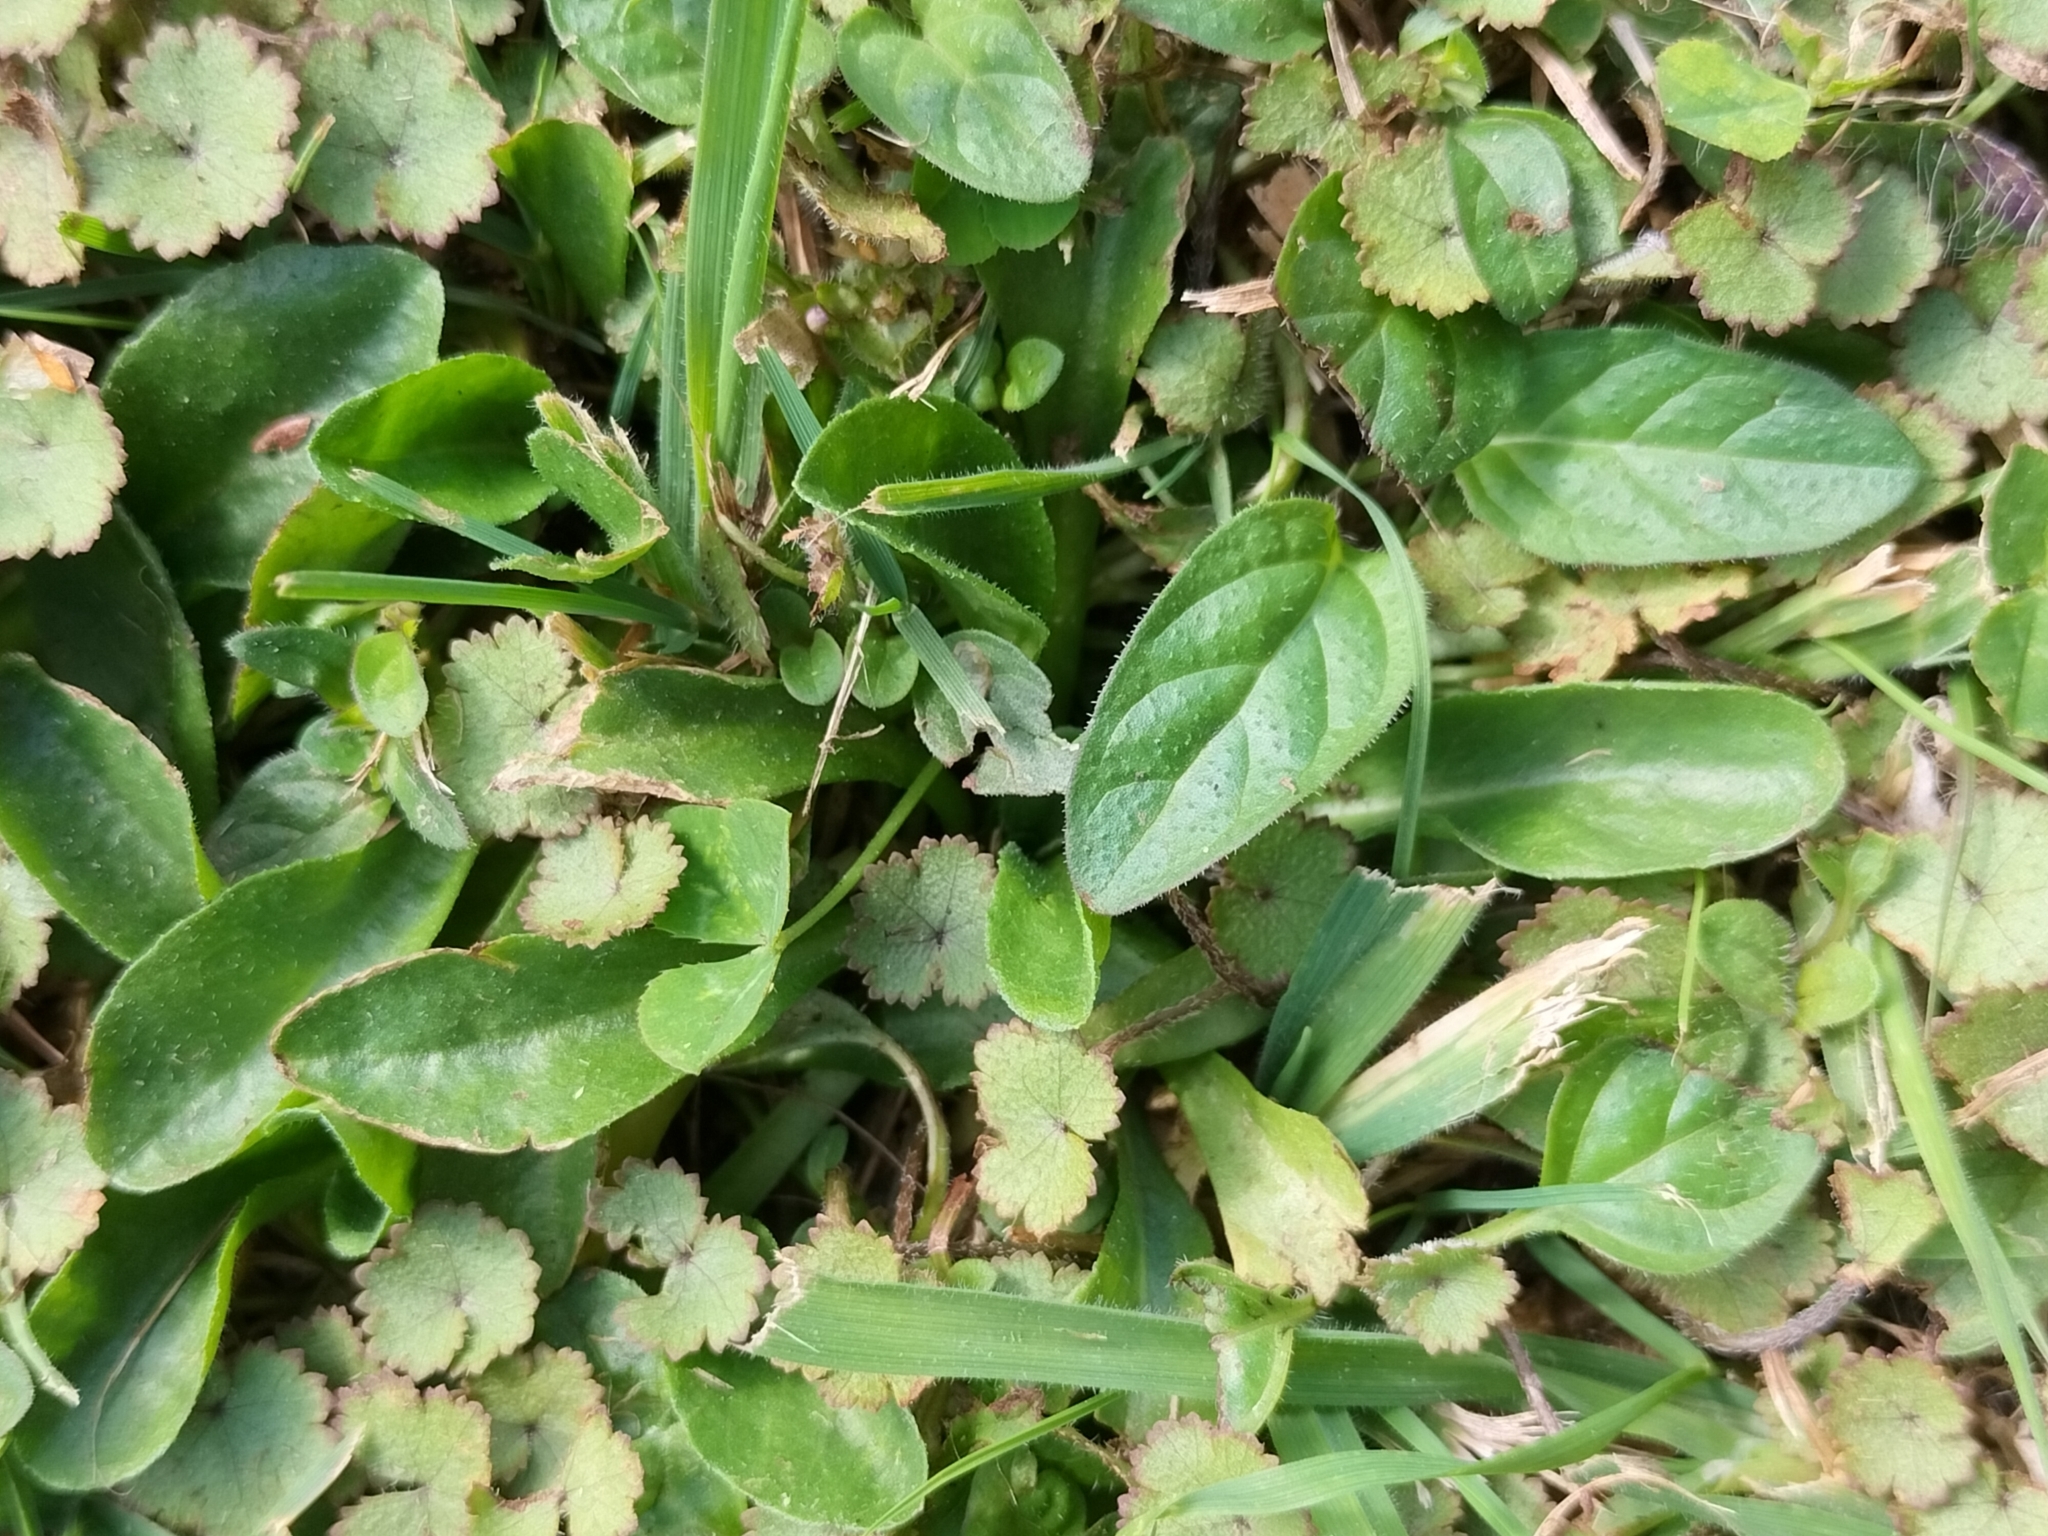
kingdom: Plantae
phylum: Tracheophyta
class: Magnoliopsida
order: Lamiales
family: Lamiaceae
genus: Prunella
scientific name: Prunella vulgaris
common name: Heal-all
